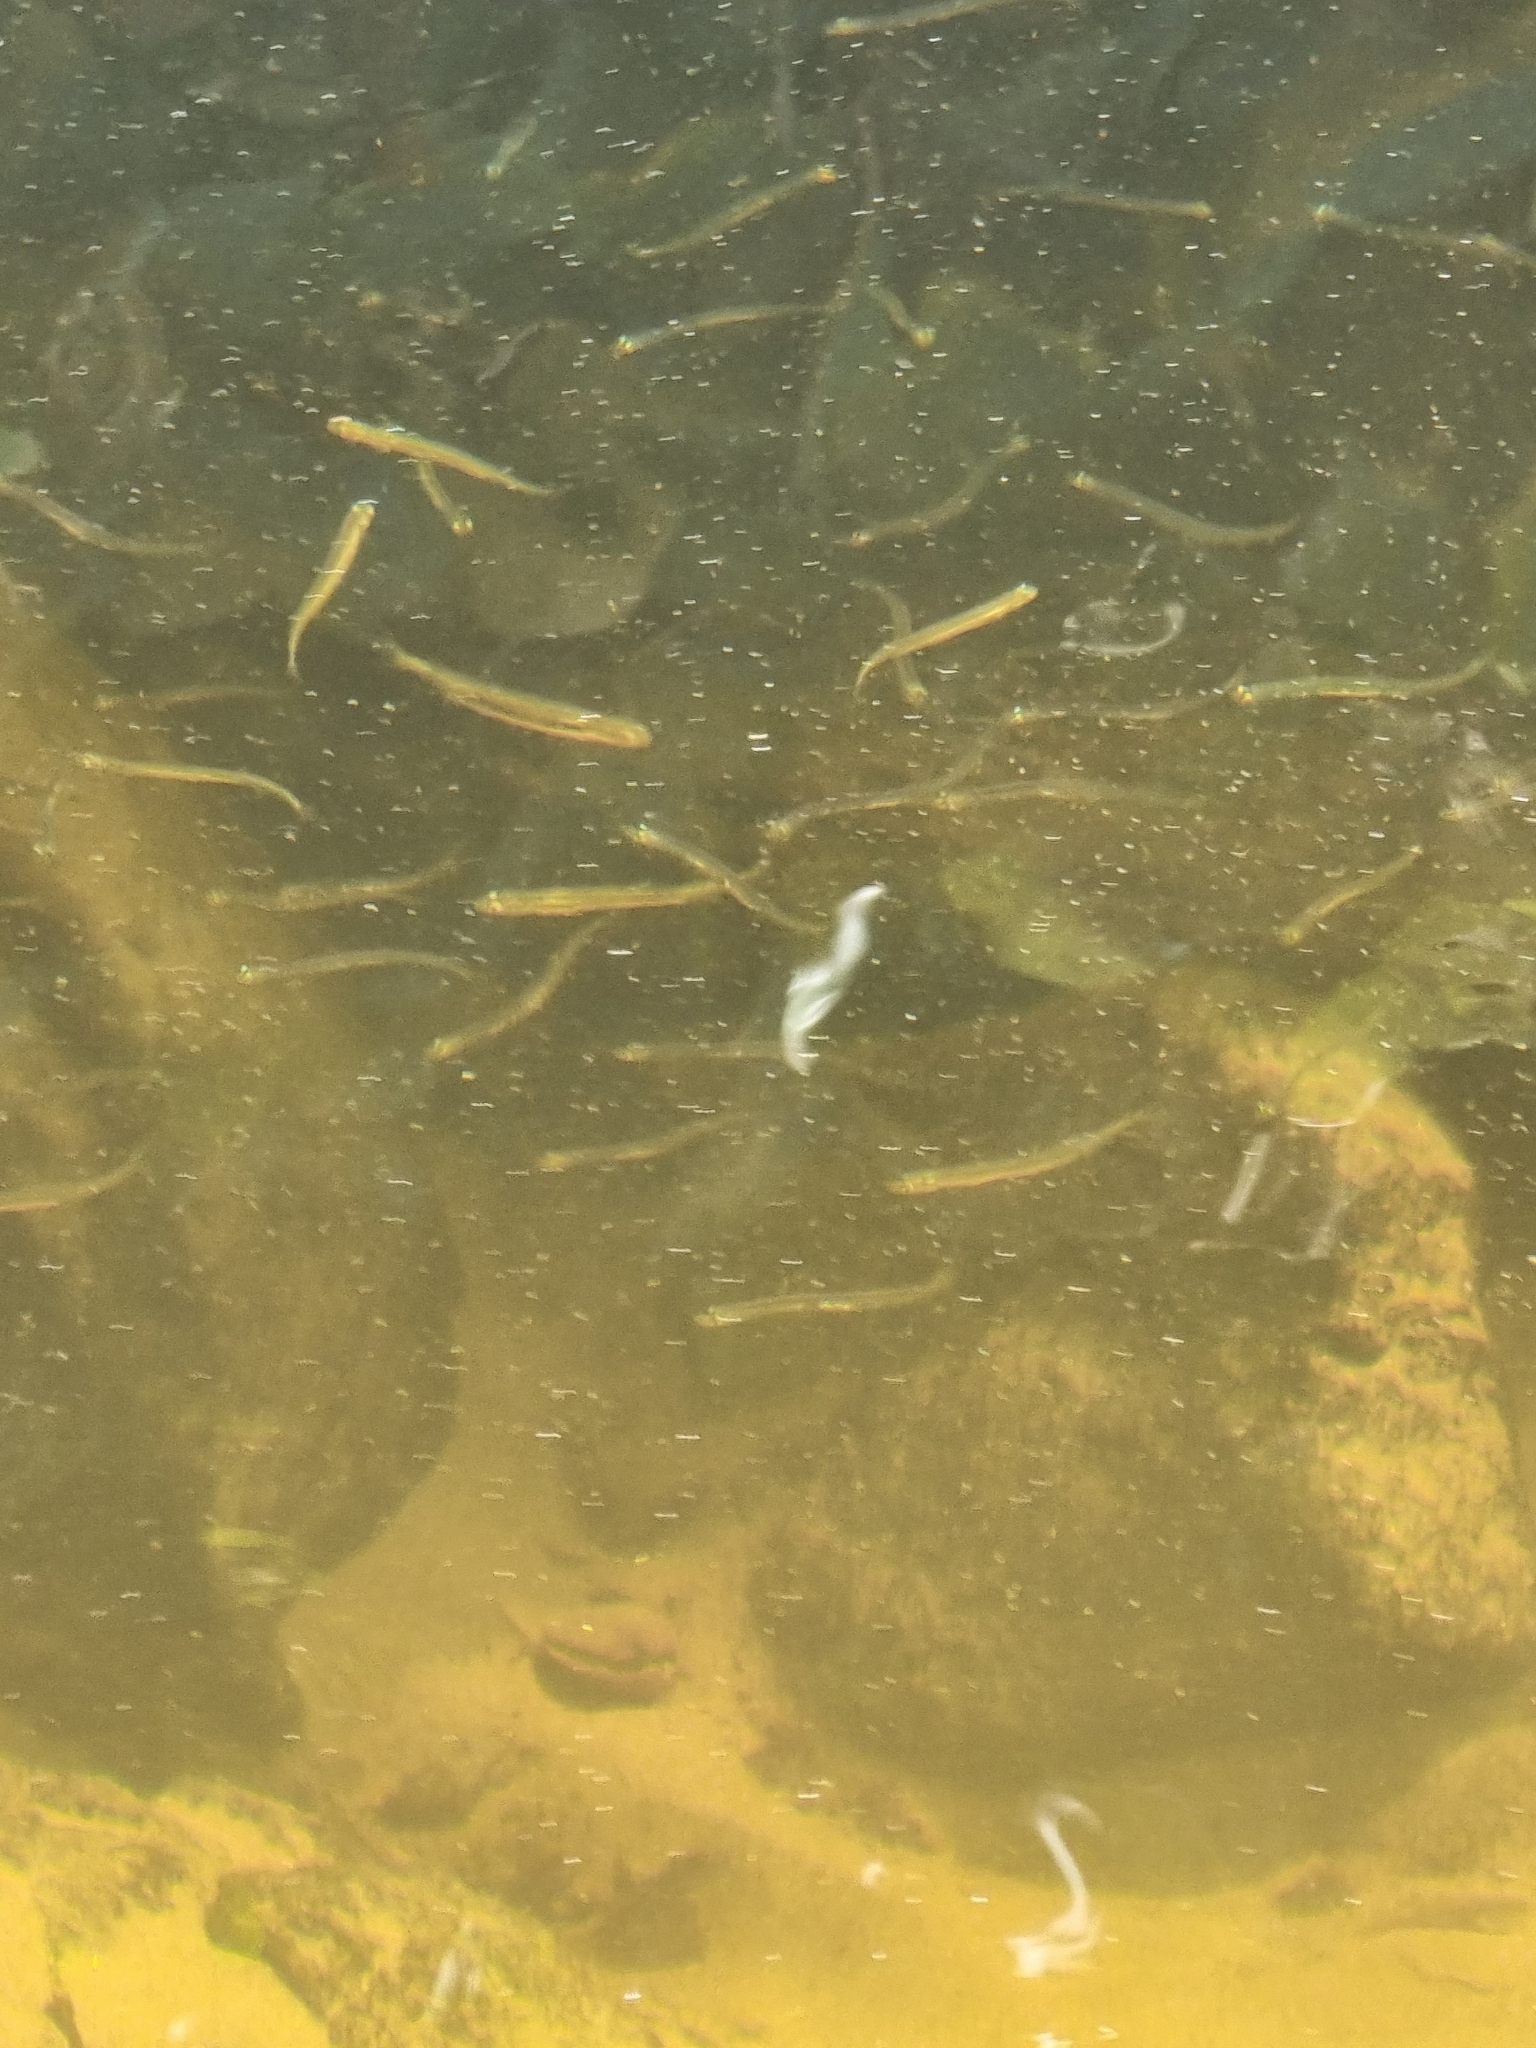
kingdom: Animalia
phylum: Chordata
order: Osmeriformes
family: Galaxiidae
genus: Galaxias
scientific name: Galaxias maculatus
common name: Common galaxias
